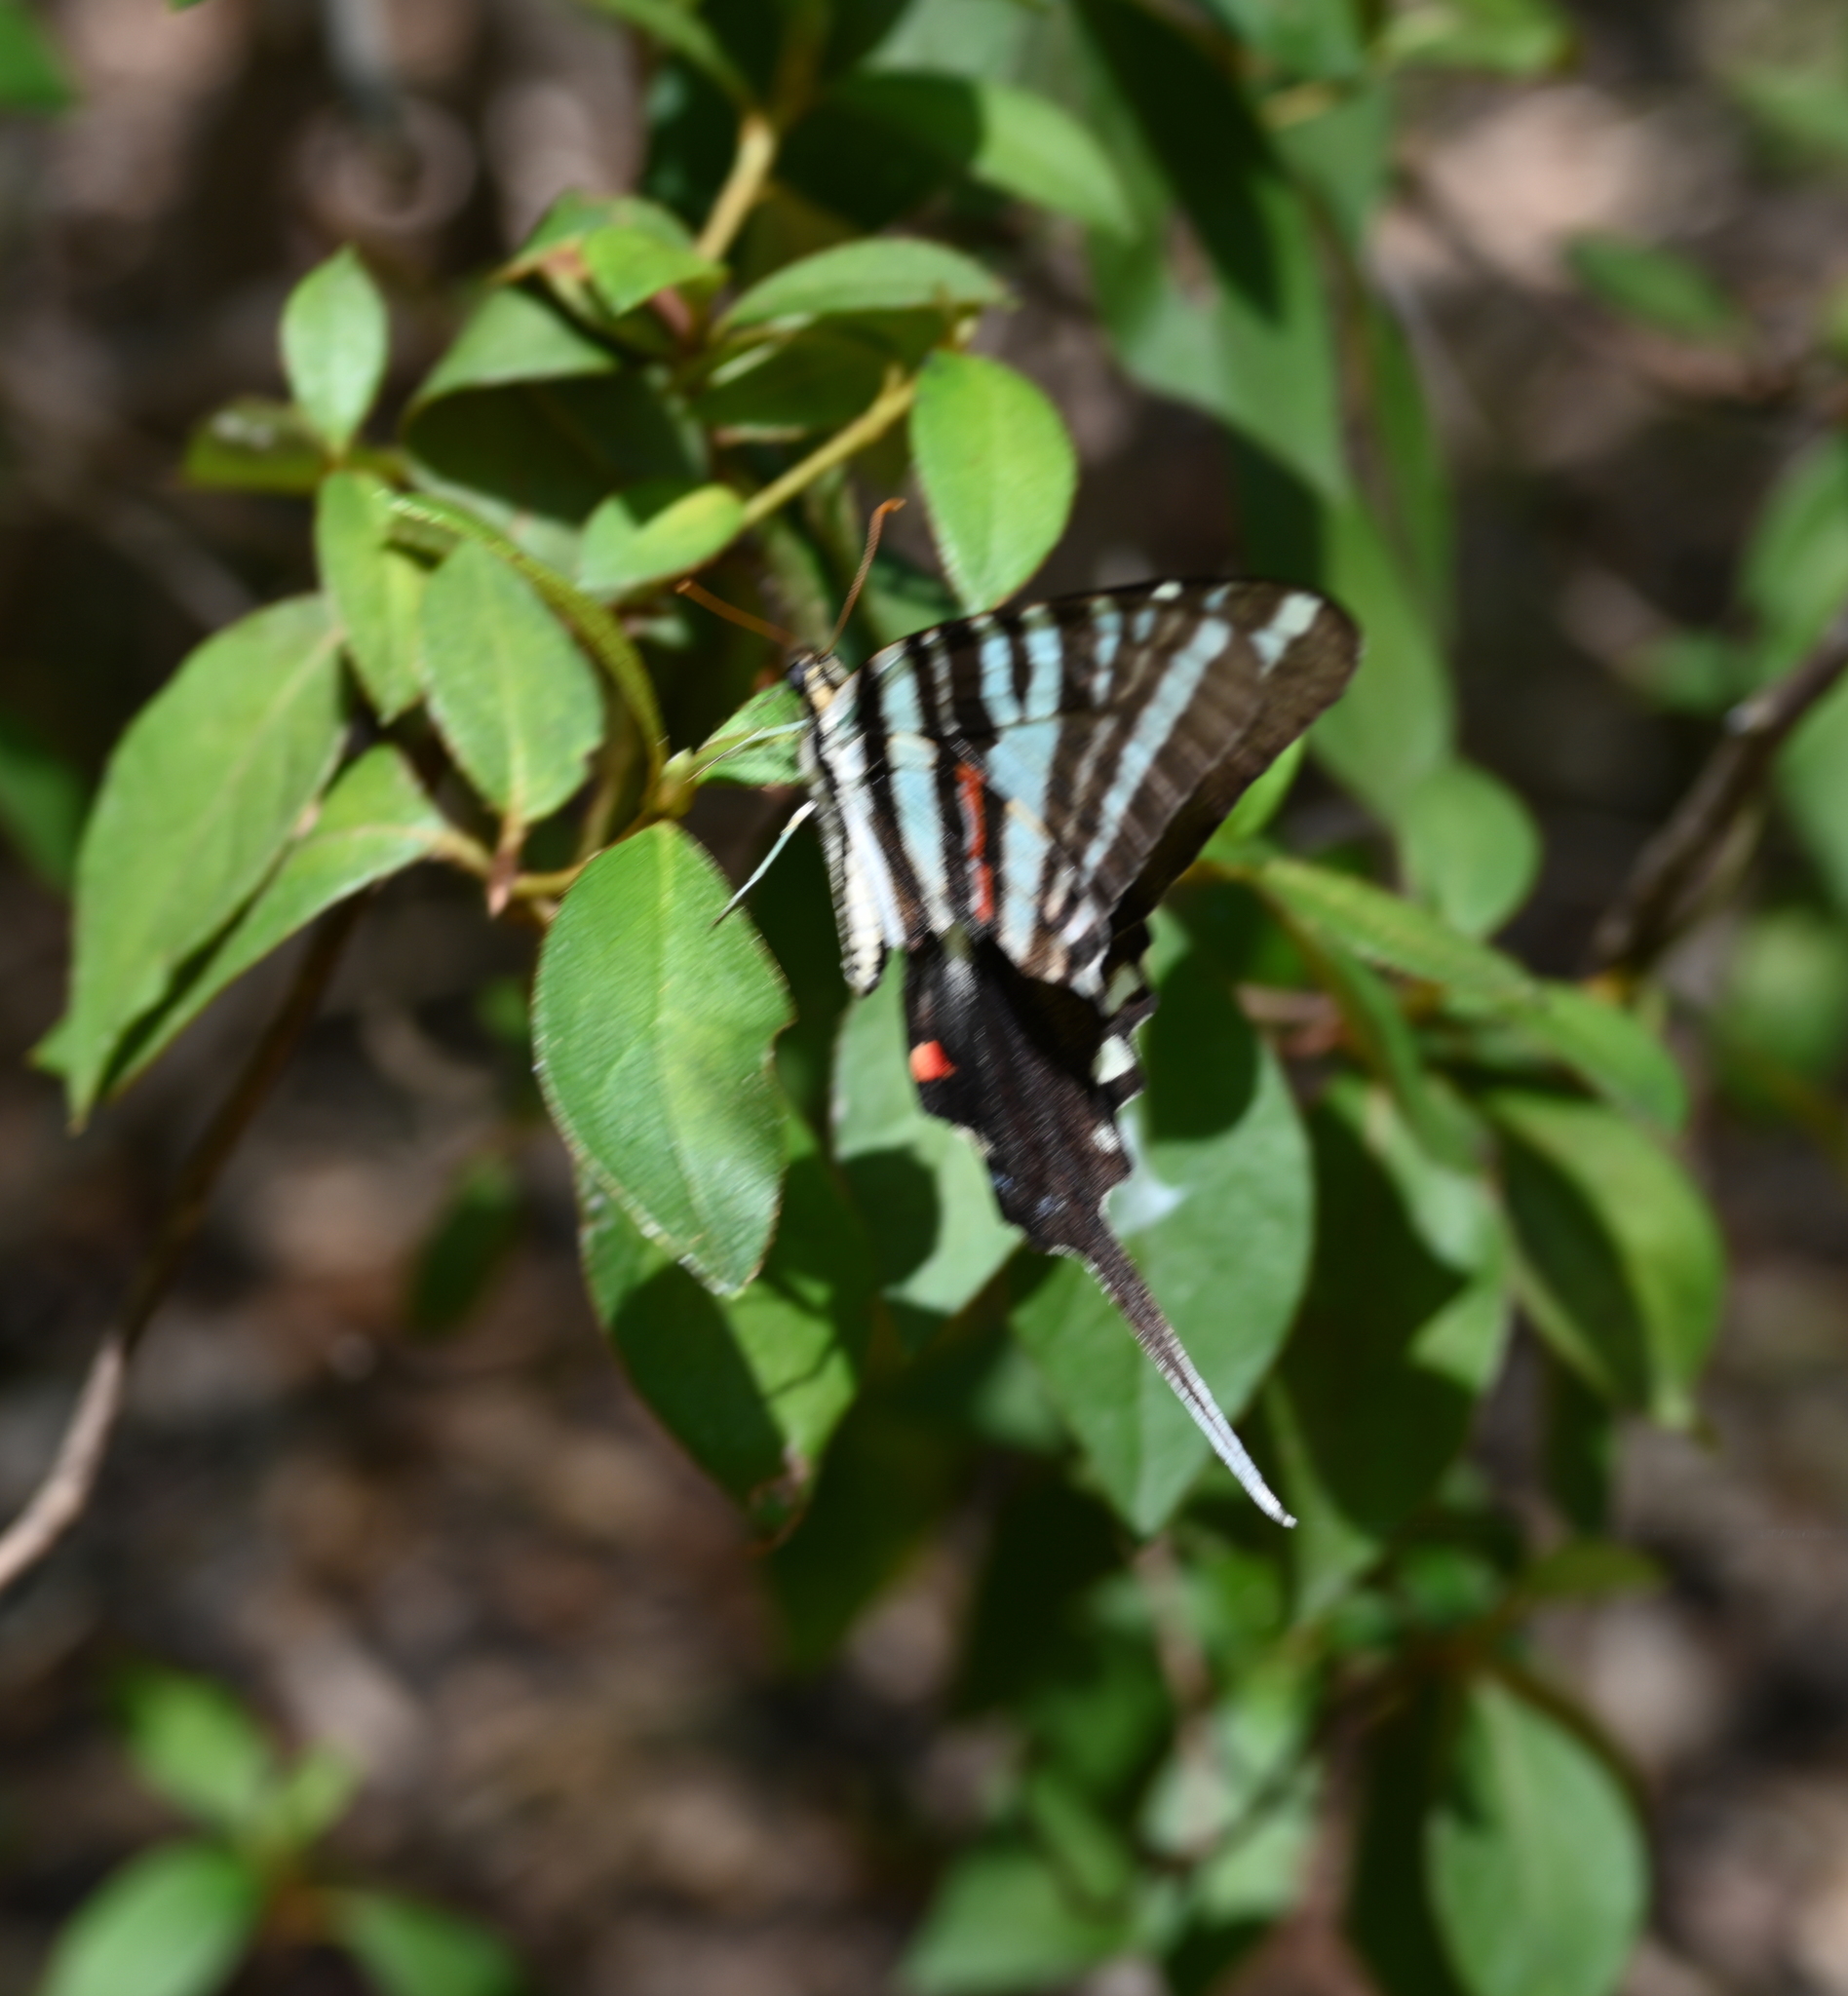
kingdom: Animalia
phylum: Arthropoda
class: Insecta
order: Lepidoptera
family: Papilionidae
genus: Protographium
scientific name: Protographium marcellus
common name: Zebra swallowtail
